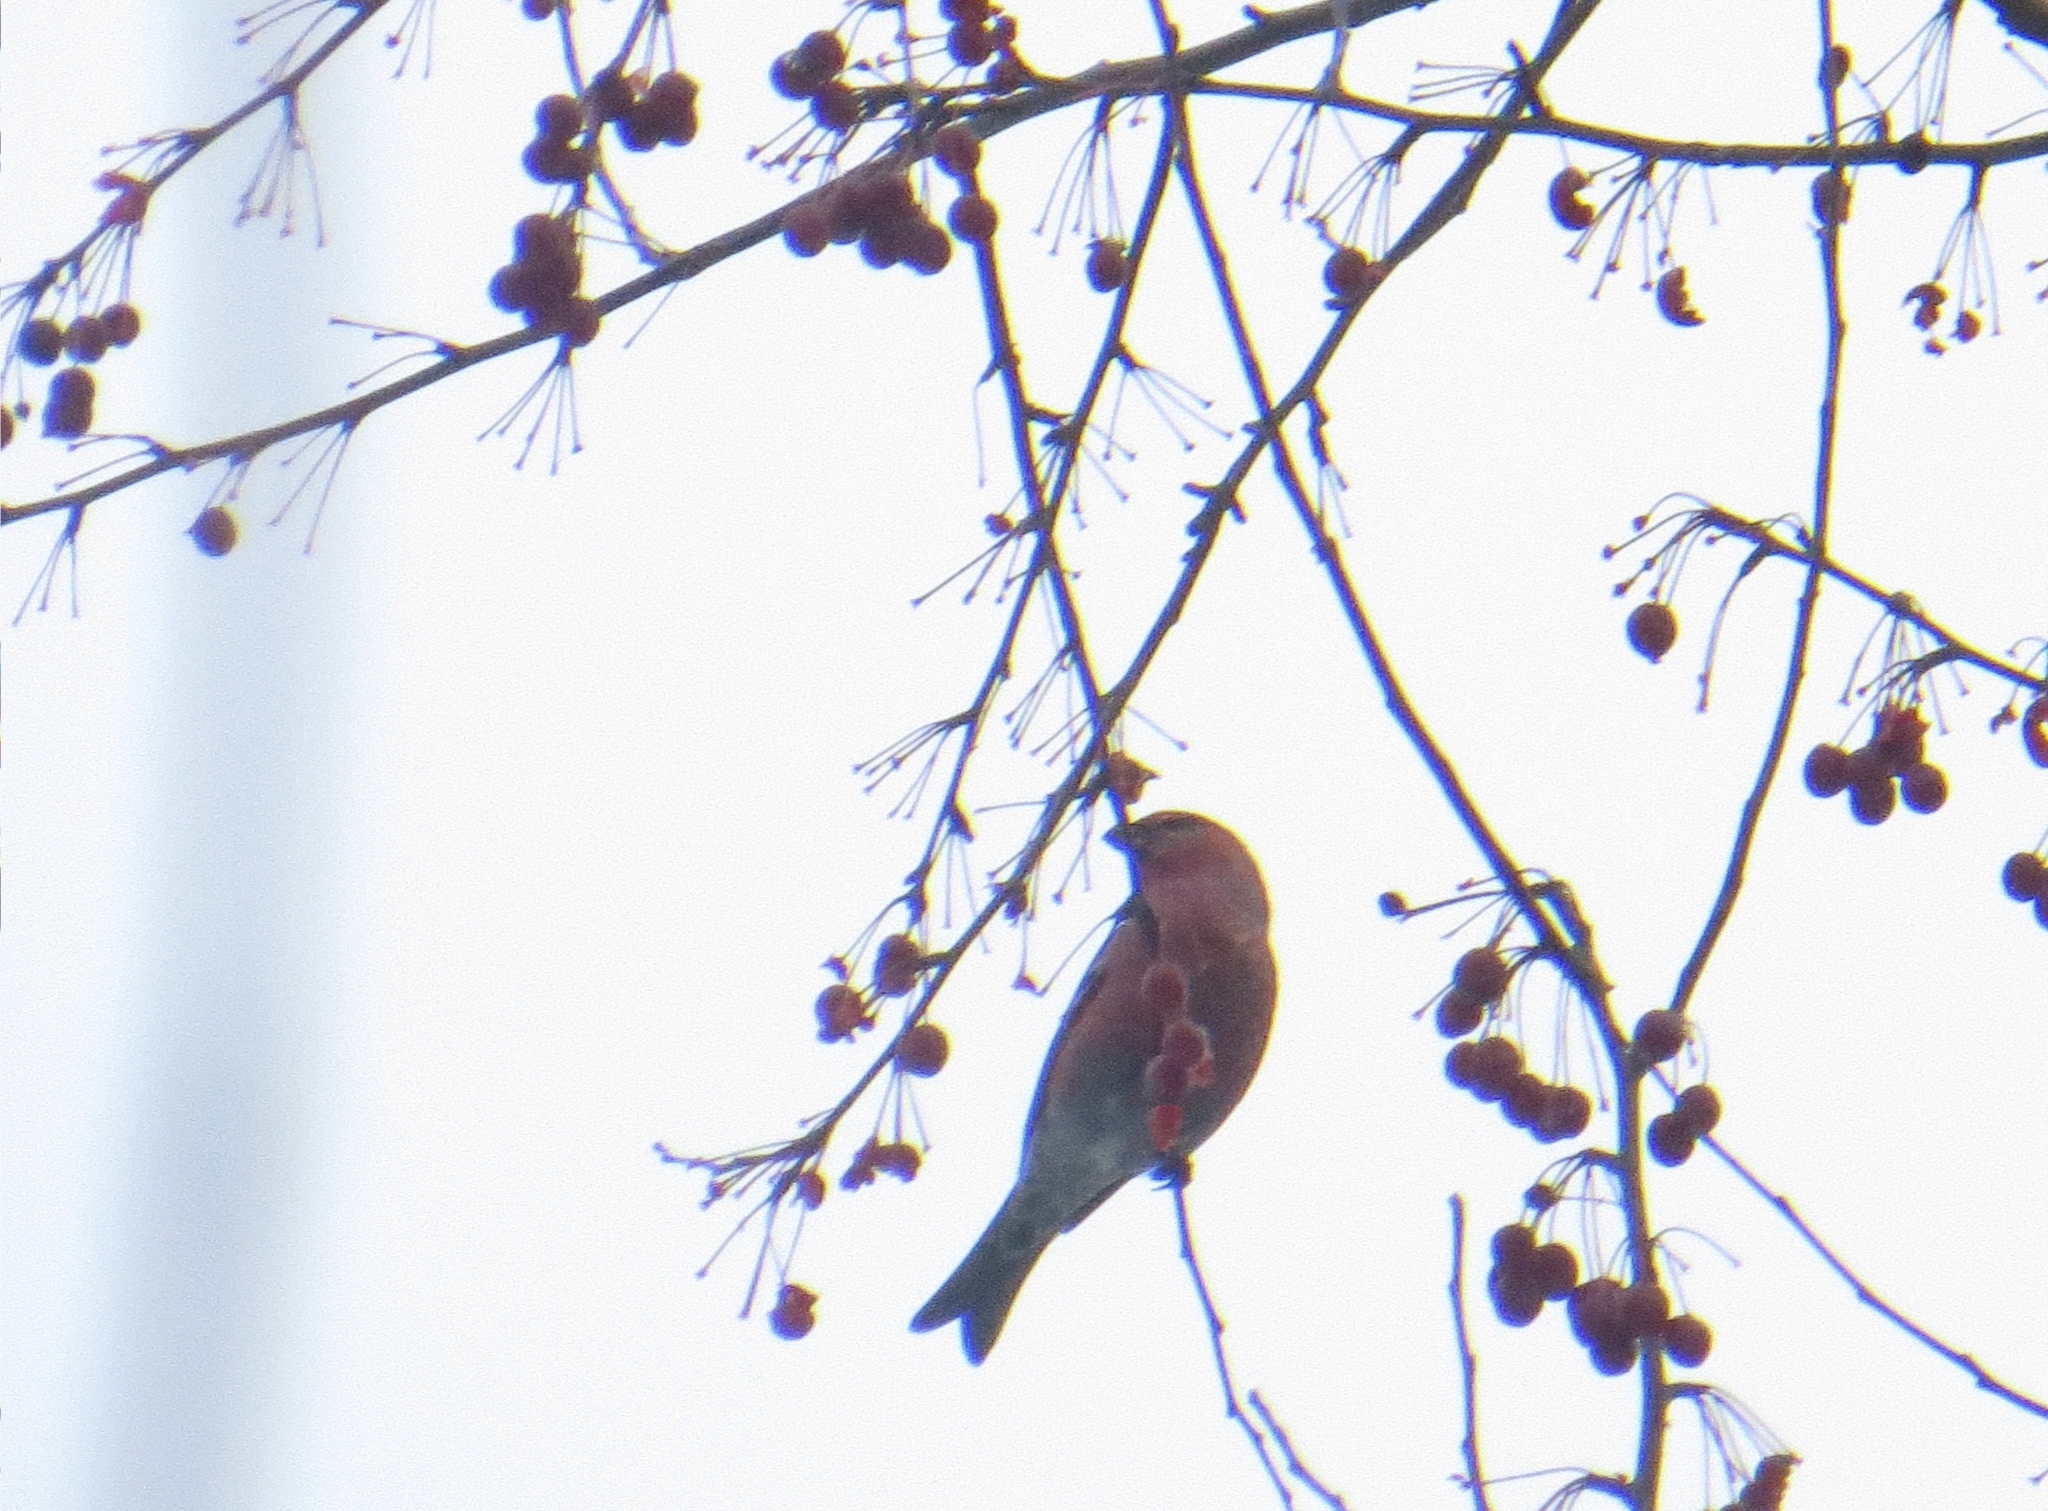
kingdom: Animalia
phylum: Chordata
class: Aves
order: Passeriformes
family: Fringillidae
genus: Pinicola
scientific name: Pinicola enucleator
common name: Pine grosbeak
